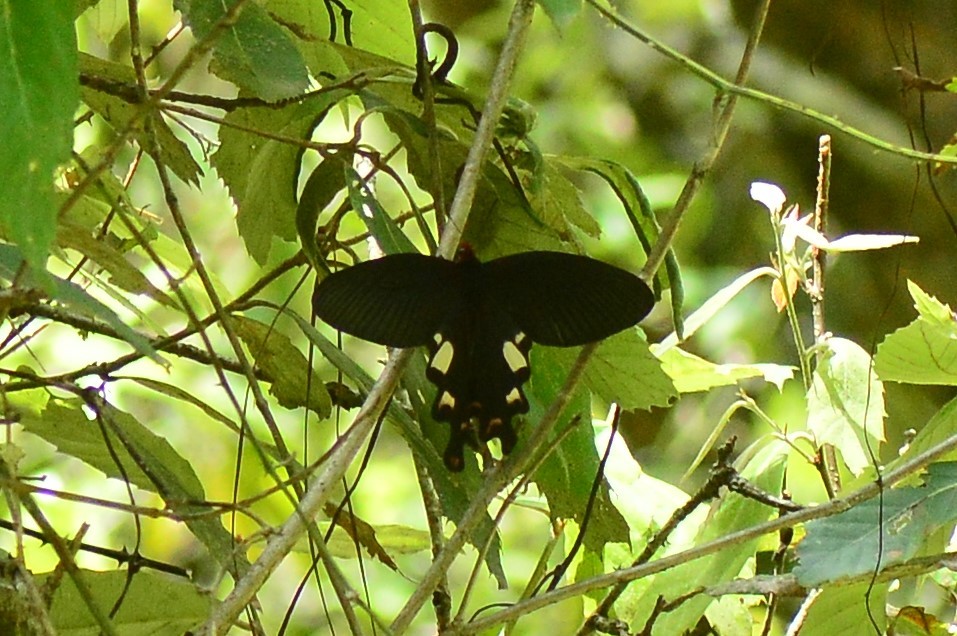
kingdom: Animalia
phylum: Arthropoda
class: Insecta
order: Lepidoptera
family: Papilionidae
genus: Byasa
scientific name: Byasa dasarada
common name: Great windmill
